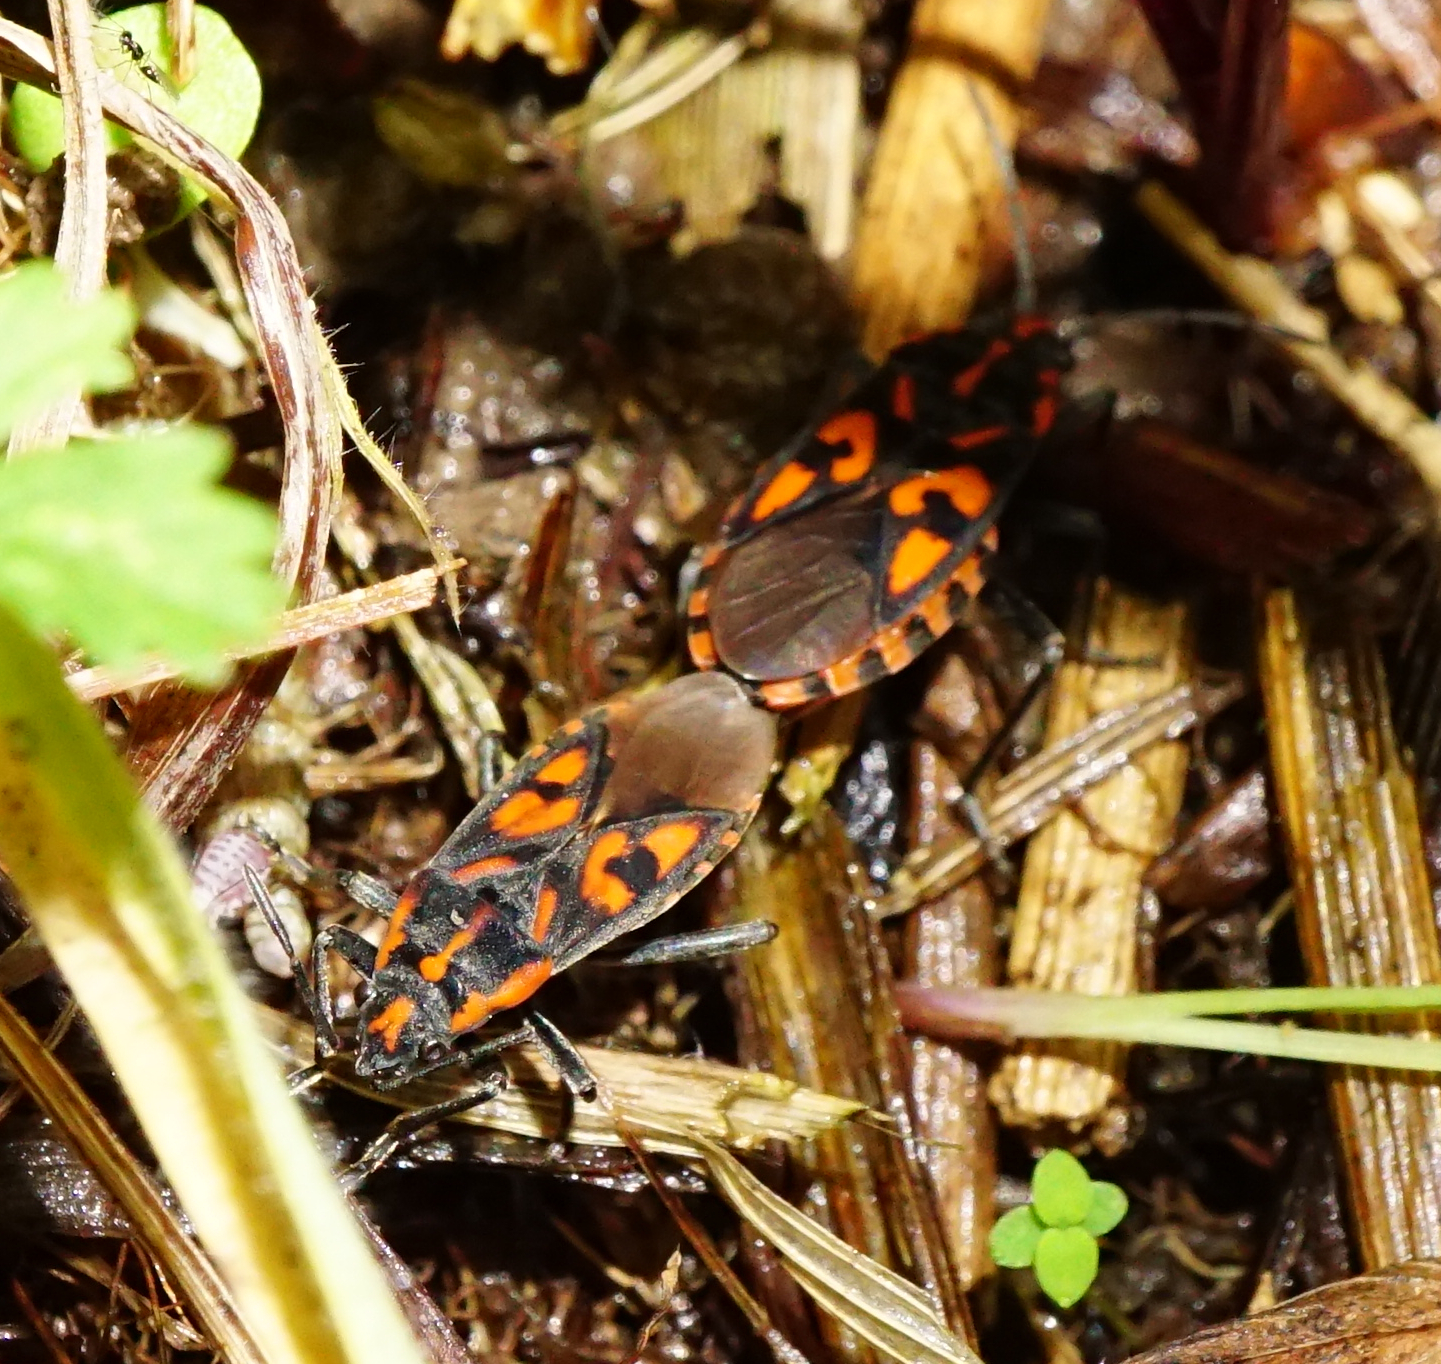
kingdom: Animalia
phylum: Arthropoda
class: Insecta
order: Hemiptera
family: Lygaeidae
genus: Spilostethus
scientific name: Spilostethus saxatilis
